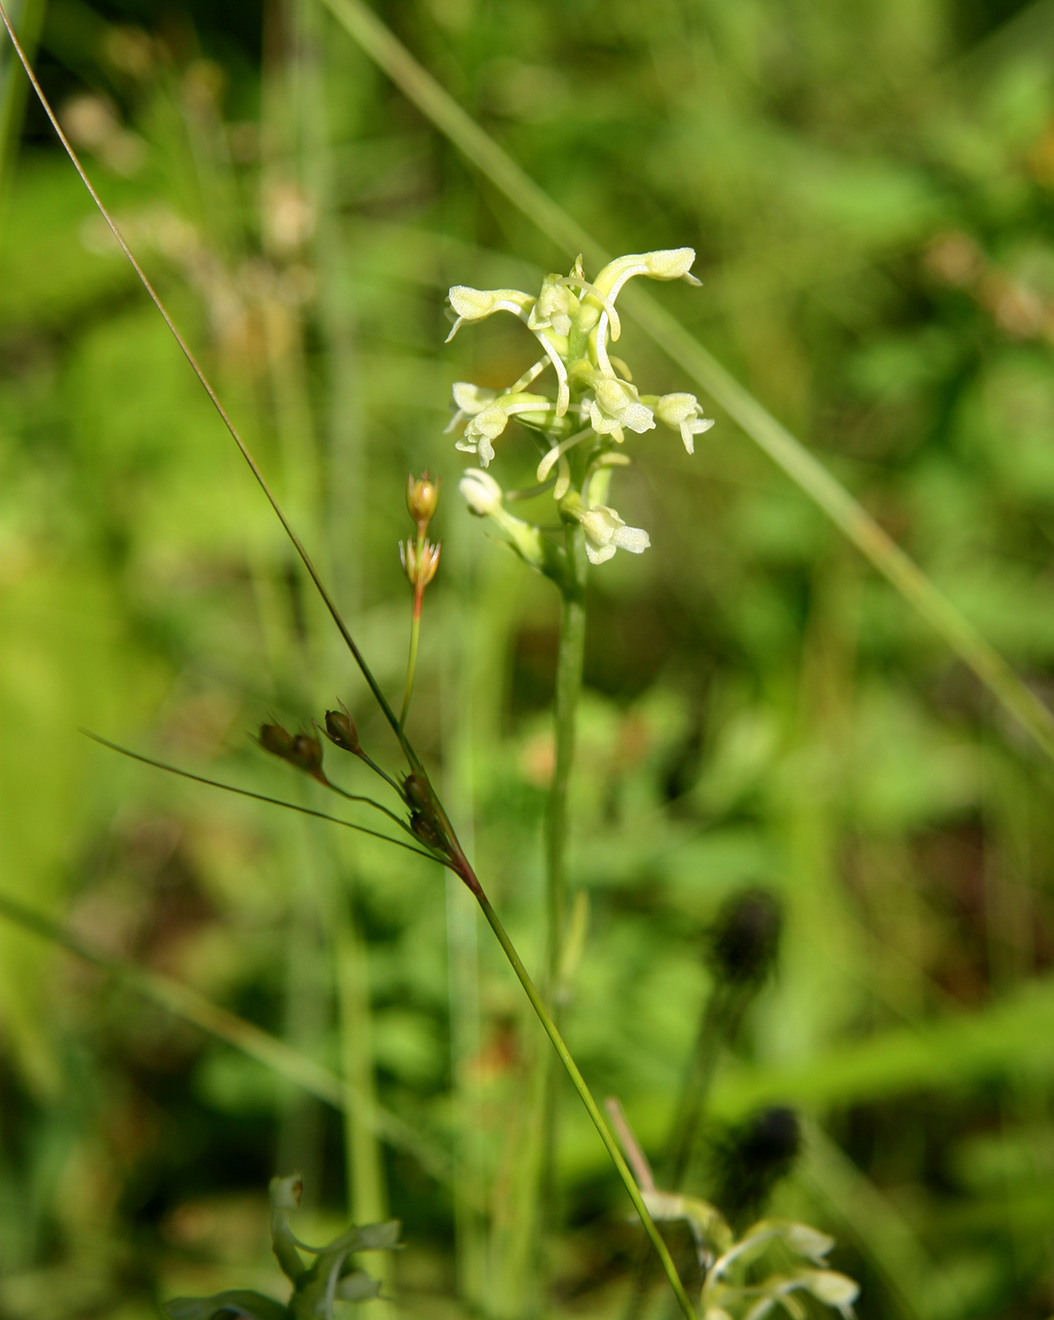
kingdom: Plantae
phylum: Tracheophyta
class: Liliopsida
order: Asparagales
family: Orchidaceae
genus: Platanthera
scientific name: Platanthera clavellata
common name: Club-spur orchid
